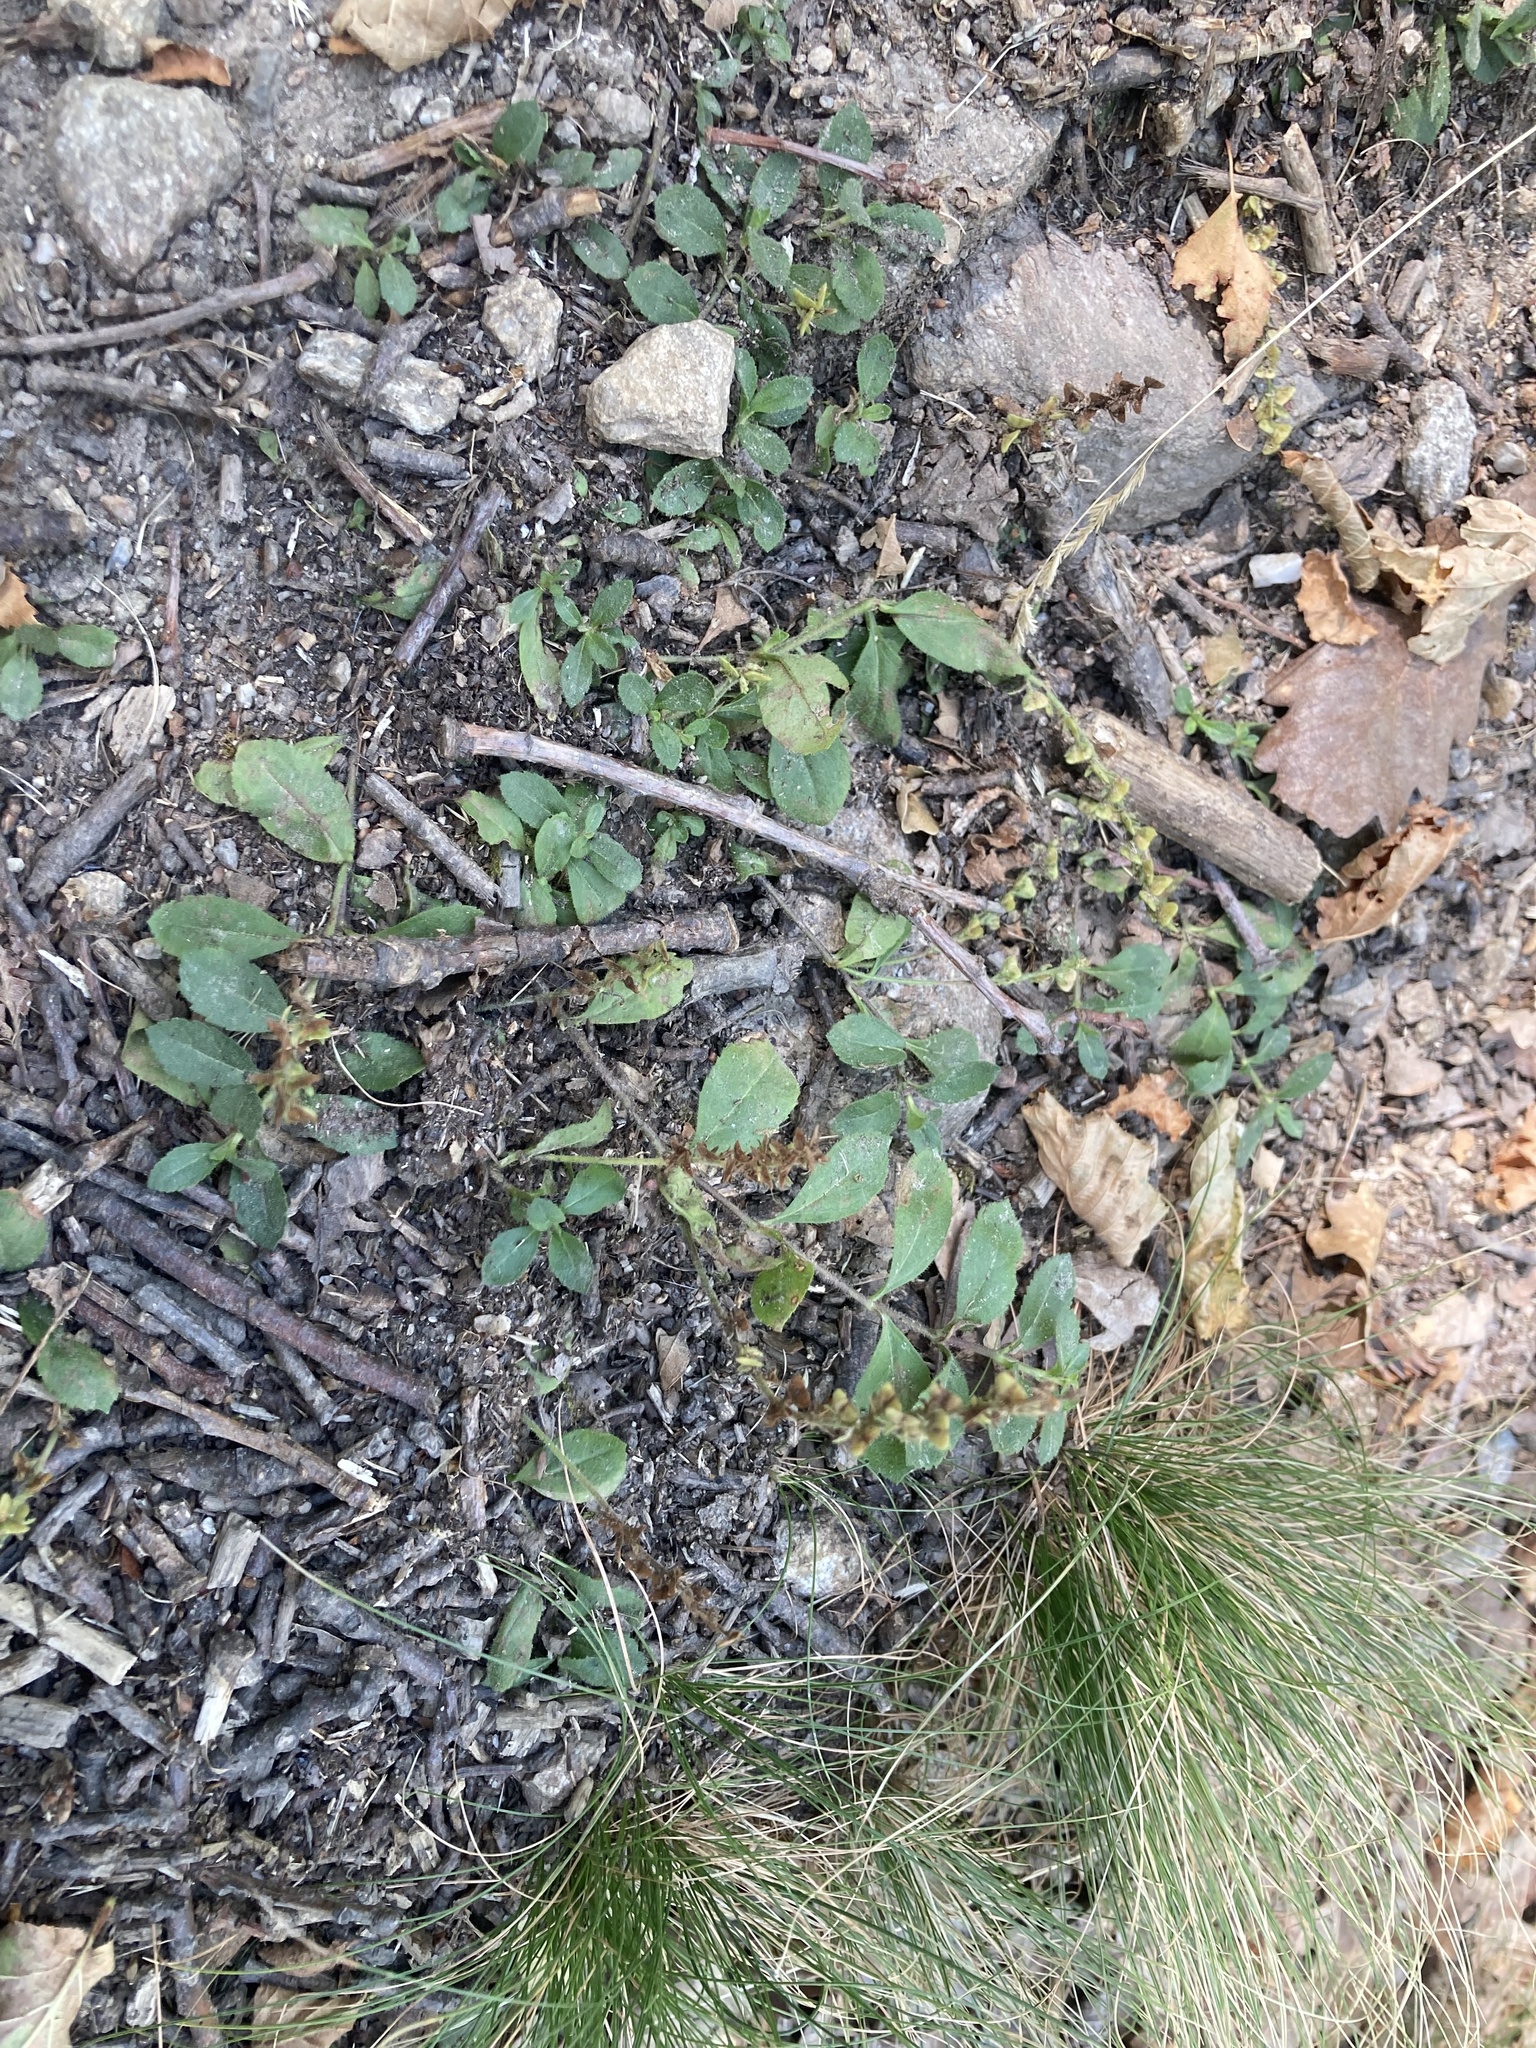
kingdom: Plantae
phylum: Tracheophyta
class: Magnoliopsida
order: Lamiales
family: Plantaginaceae
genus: Veronica
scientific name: Veronica officinalis
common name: Common speedwell
